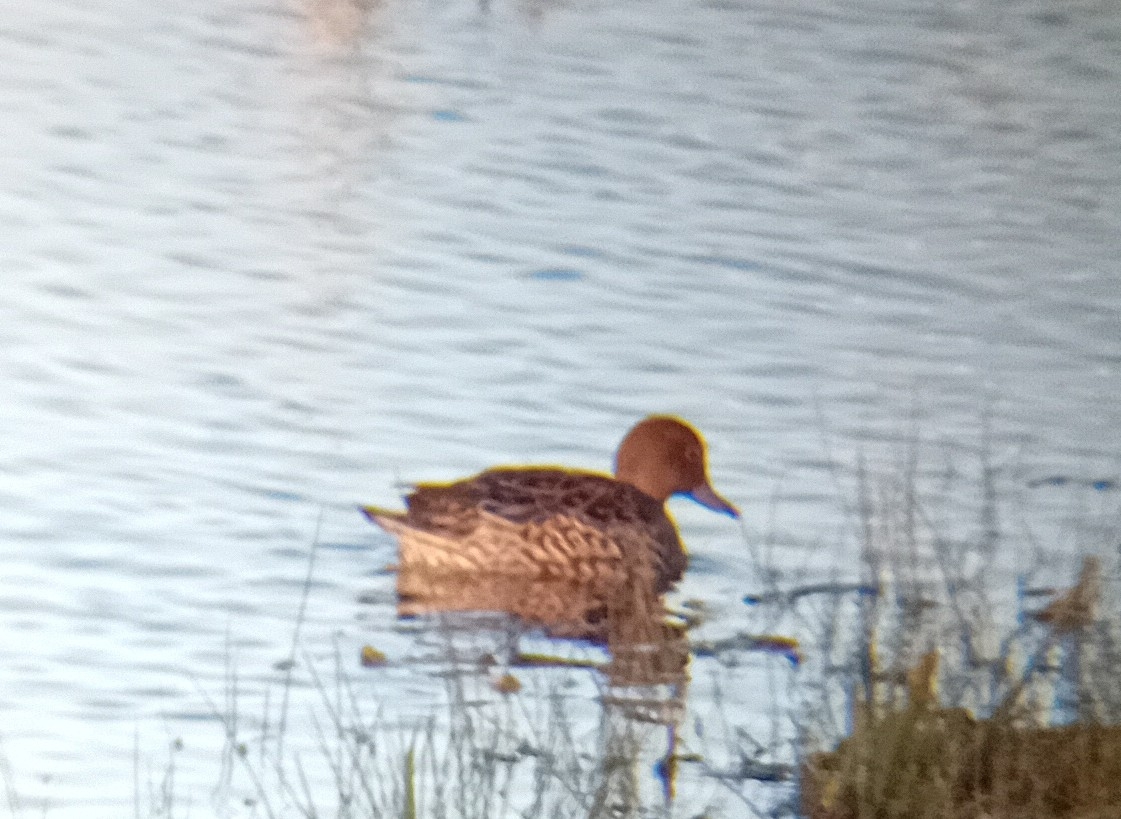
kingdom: Animalia
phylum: Chordata
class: Aves
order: Anseriformes
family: Anatidae
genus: Anas
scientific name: Anas acuta
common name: Northern pintail
